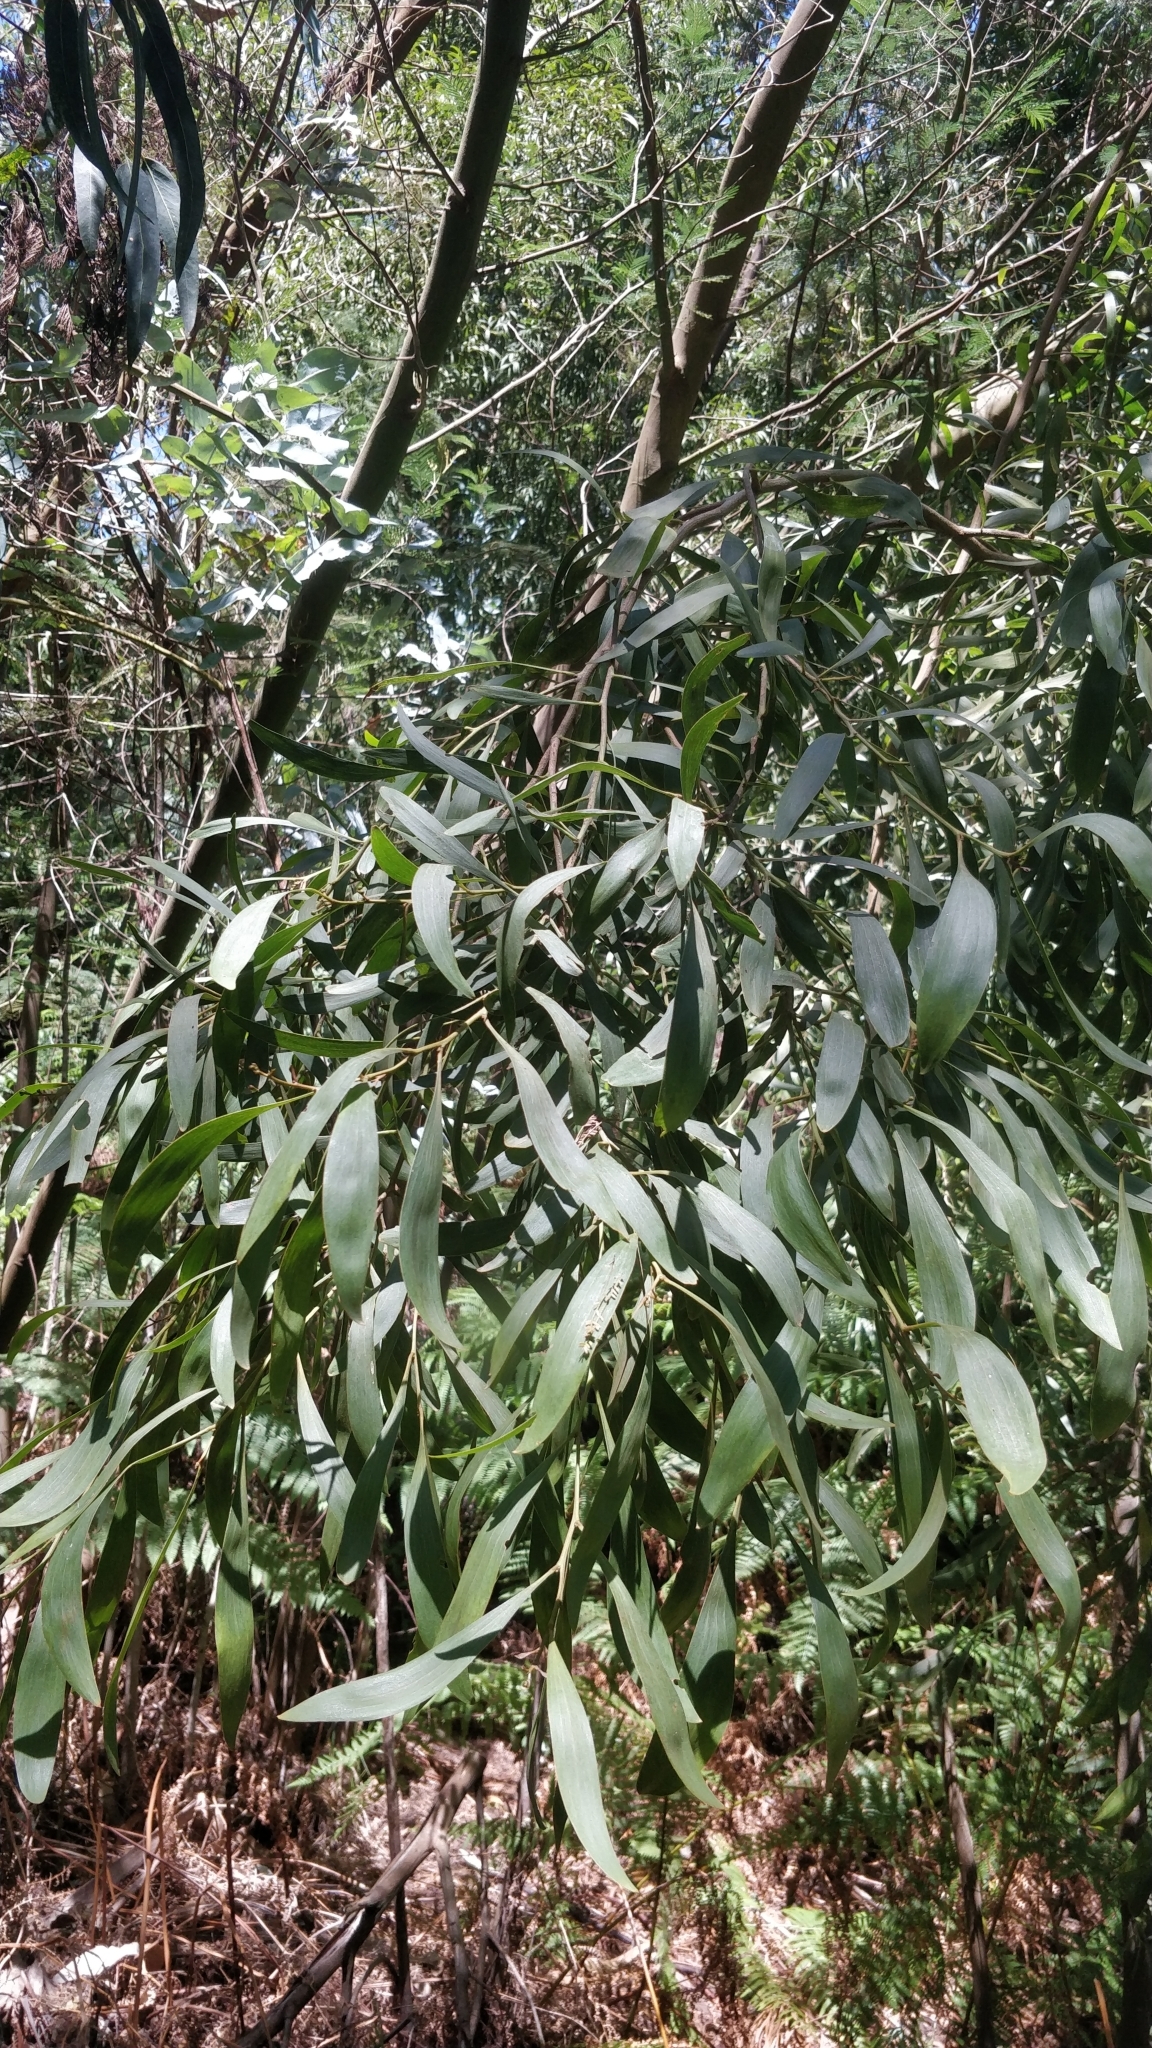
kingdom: Plantae
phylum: Tracheophyta
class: Magnoliopsida
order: Fabales
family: Fabaceae
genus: Acacia
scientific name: Acacia melanoxylon
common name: Blackwood
